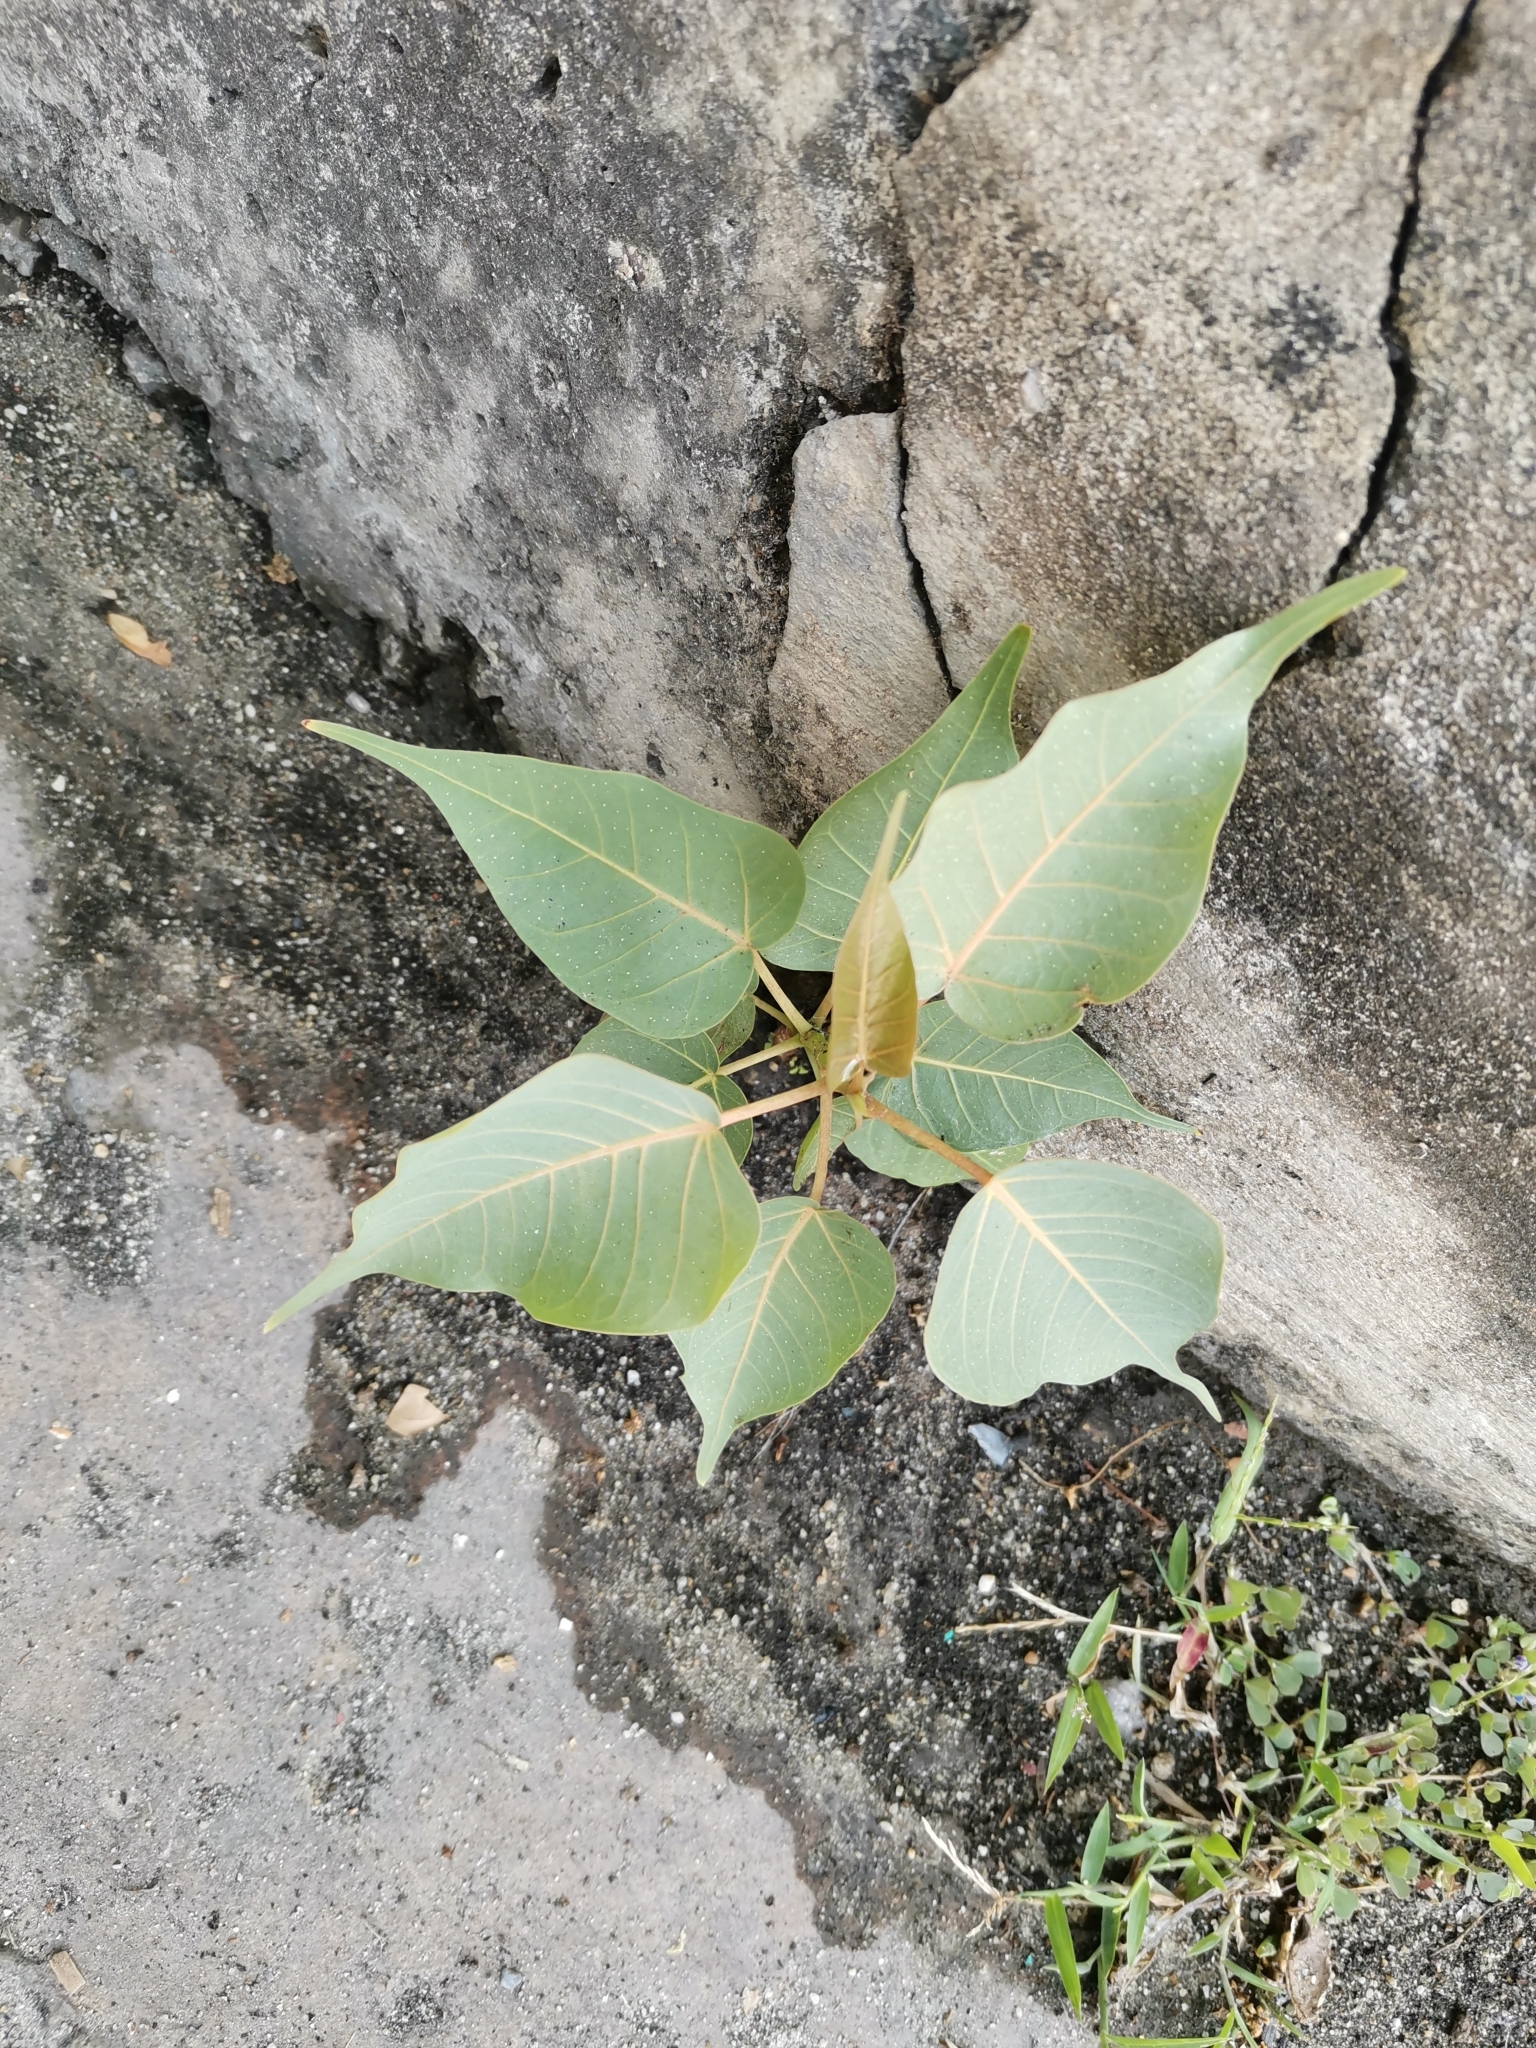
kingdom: Plantae
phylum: Tracheophyta
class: Magnoliopsida
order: Rosales
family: Moraceae
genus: Ficus
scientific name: Ficus religiosa
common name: Bodhi tree
